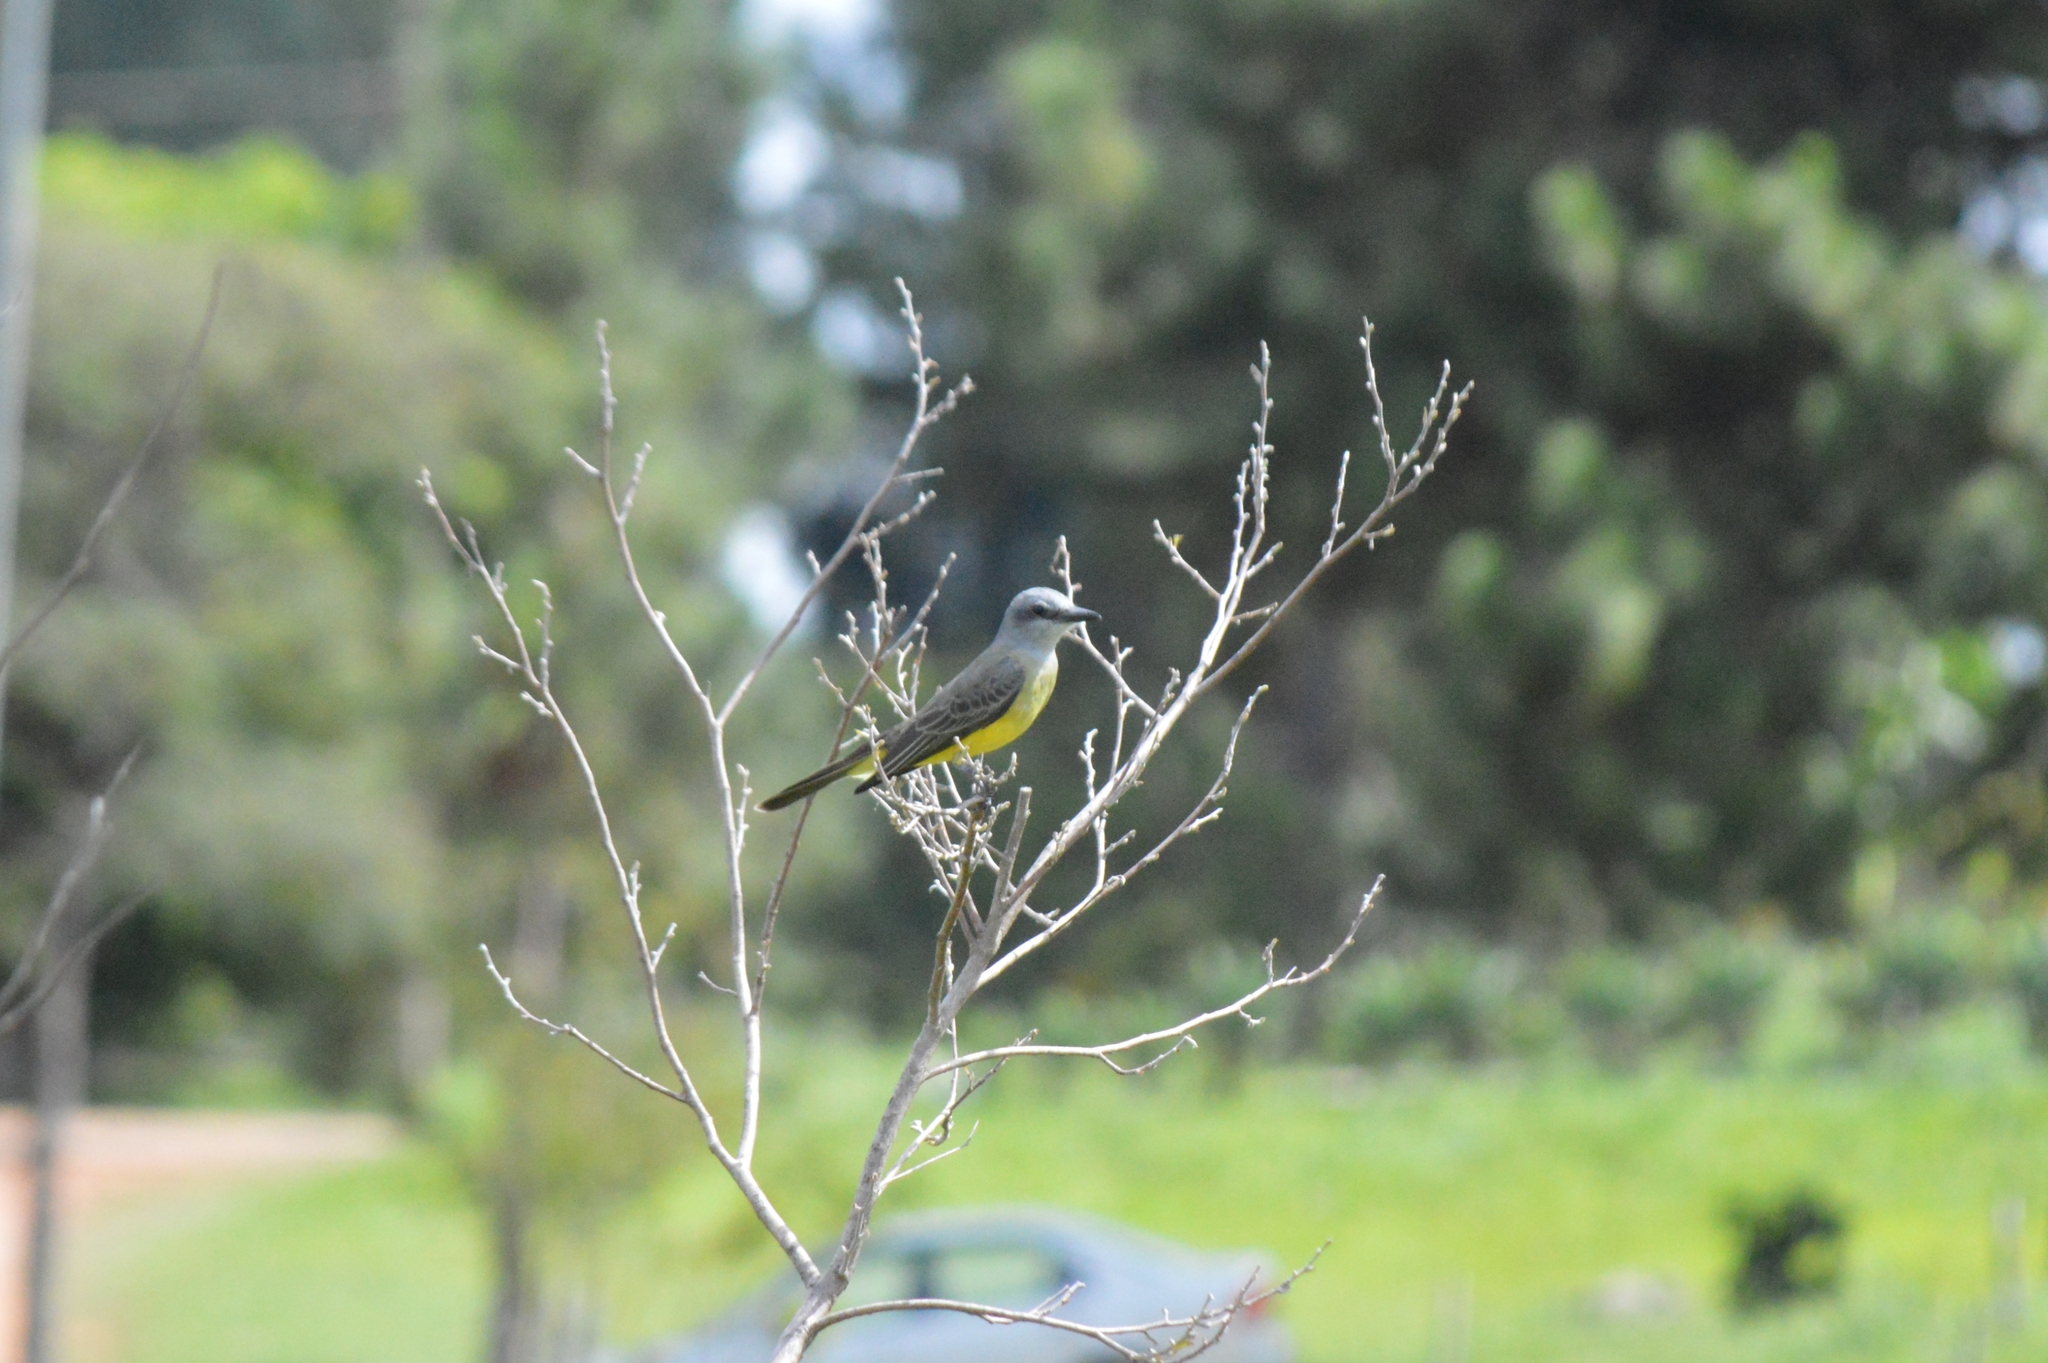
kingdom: Animalia
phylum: Chordata
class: Aves
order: Passeriformes
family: Tyrannidae
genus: Tyrannus
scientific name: Tyrannus melancholicus
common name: Tropical kingbird
